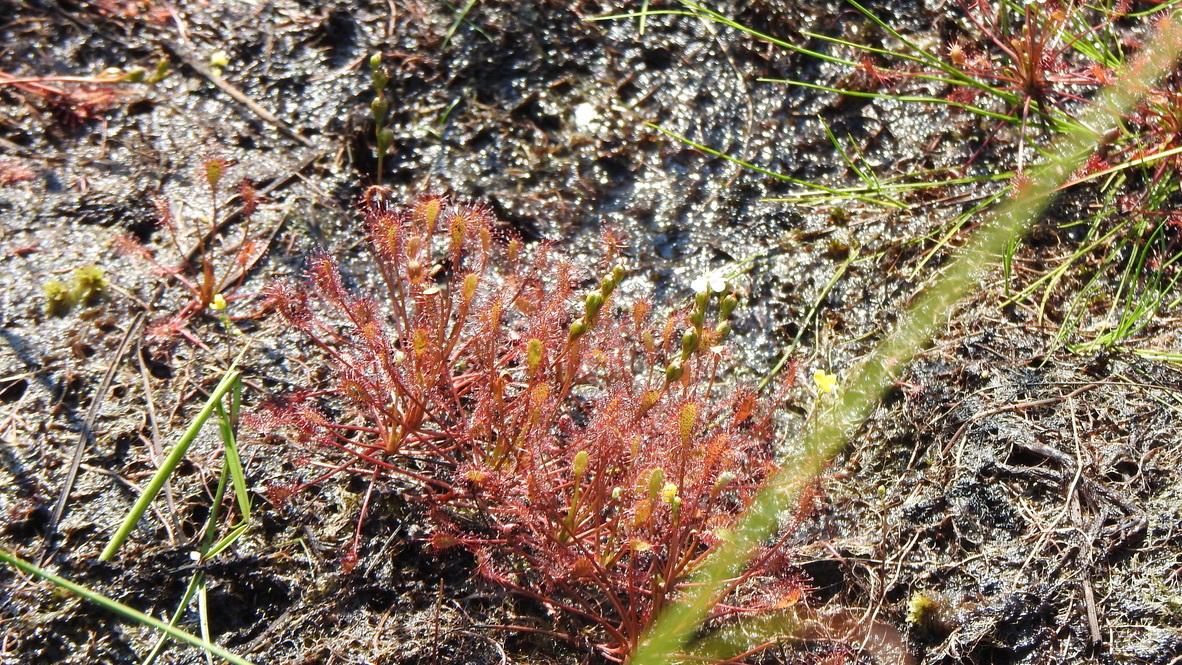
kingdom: Plantae
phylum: Tracheophyta
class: Magnoliopsida
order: Caryophyllales
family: Droseraceae
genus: Drosera
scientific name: Drosera intermedia
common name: Oblong-leaved sundew
